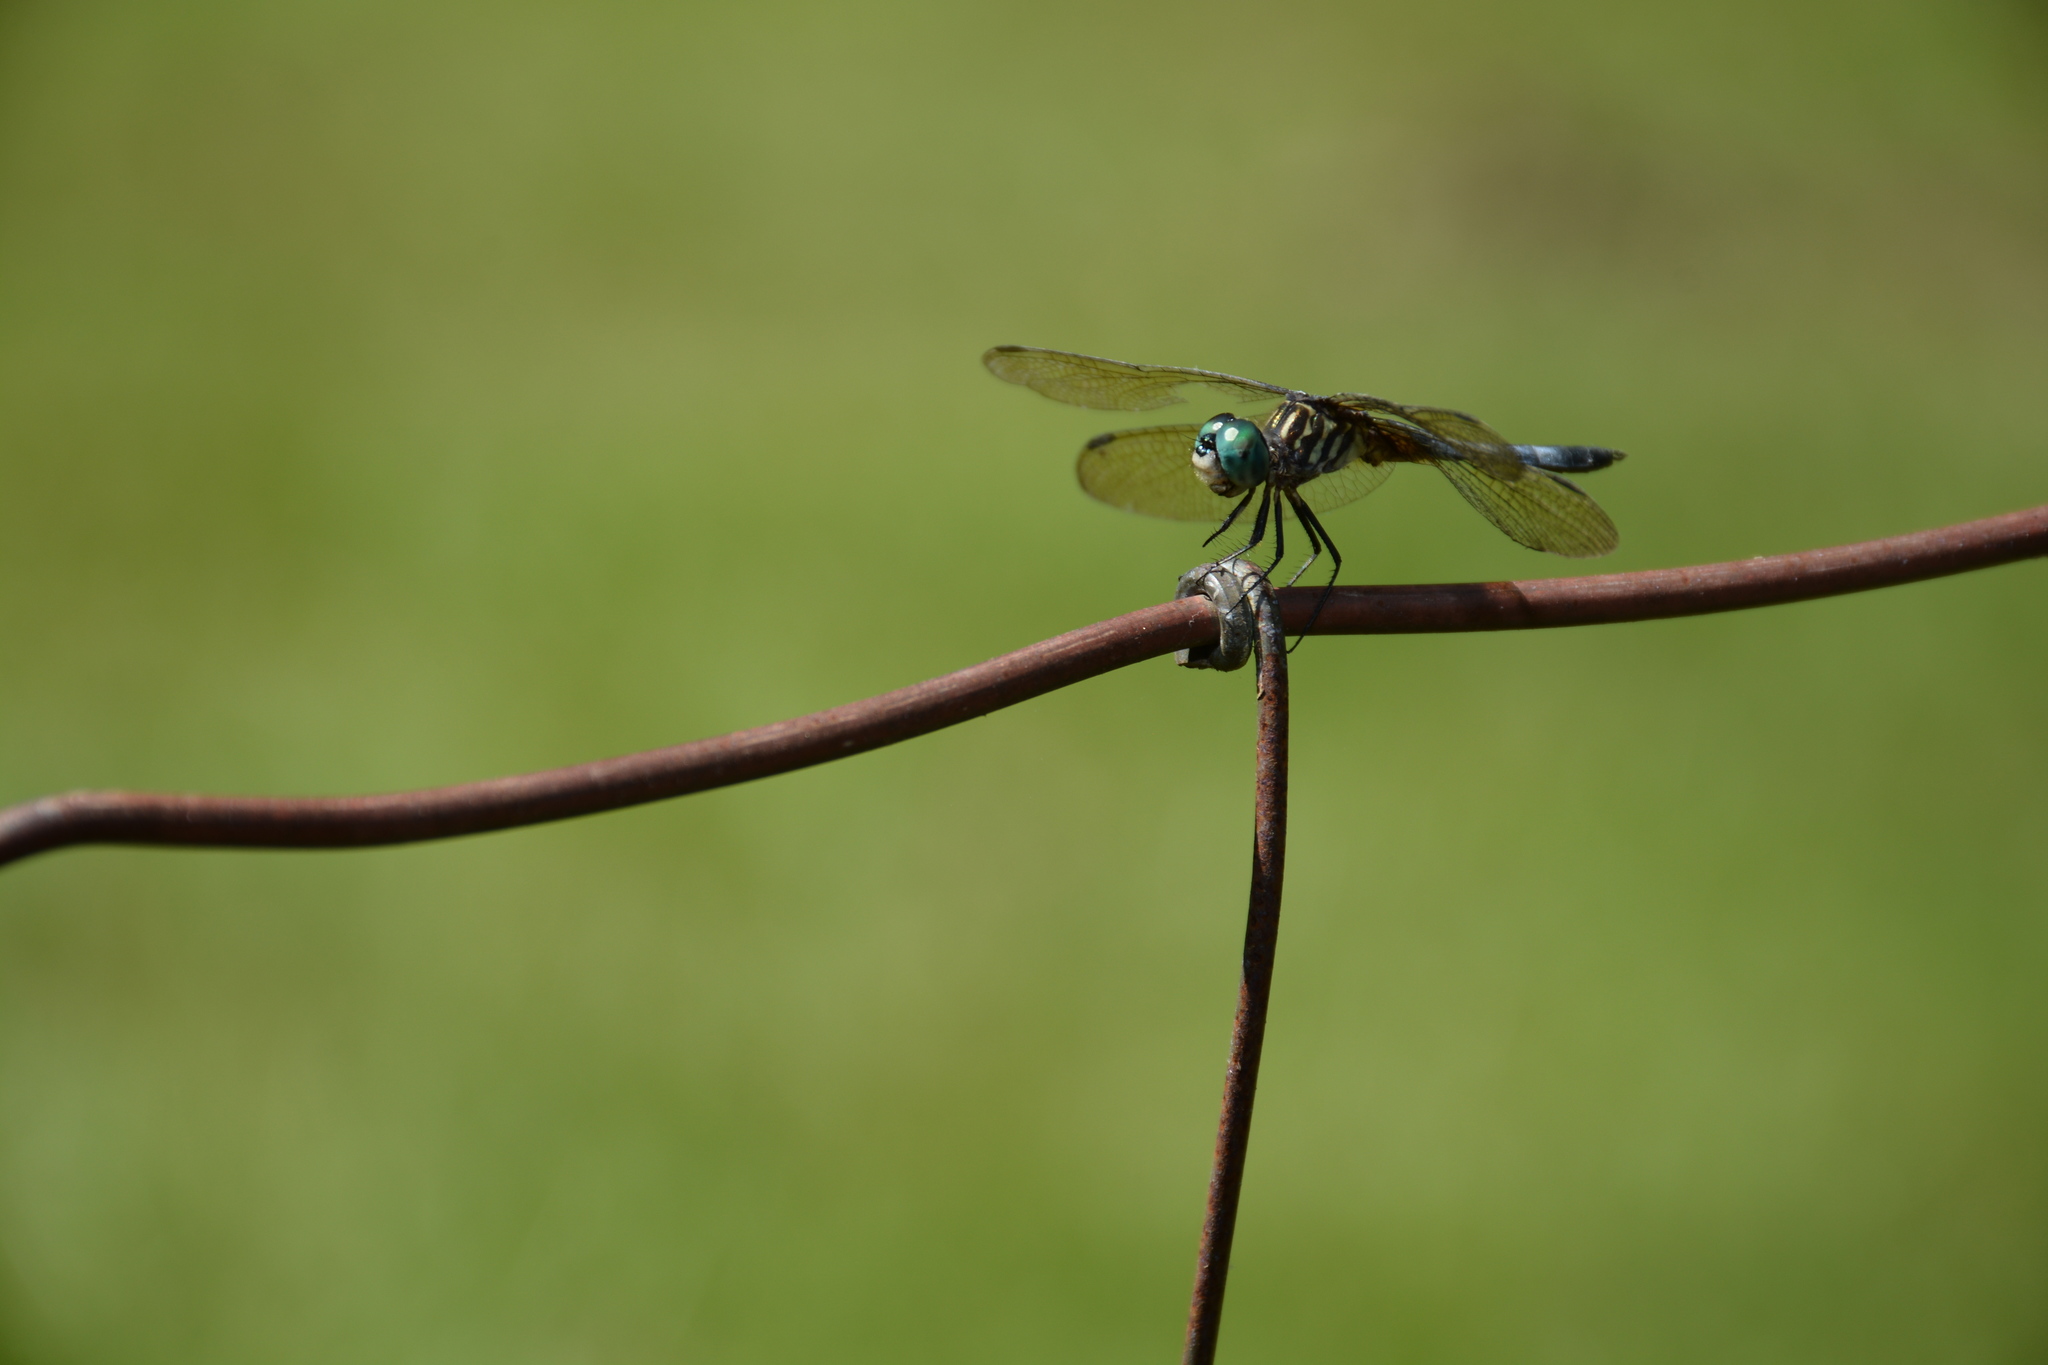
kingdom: Animalia
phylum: Arthropoda
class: Insecta
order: Odonata
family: Libellulidae
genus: Pachydiplax
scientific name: Pachydiplax longipennis
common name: Blue dasher
